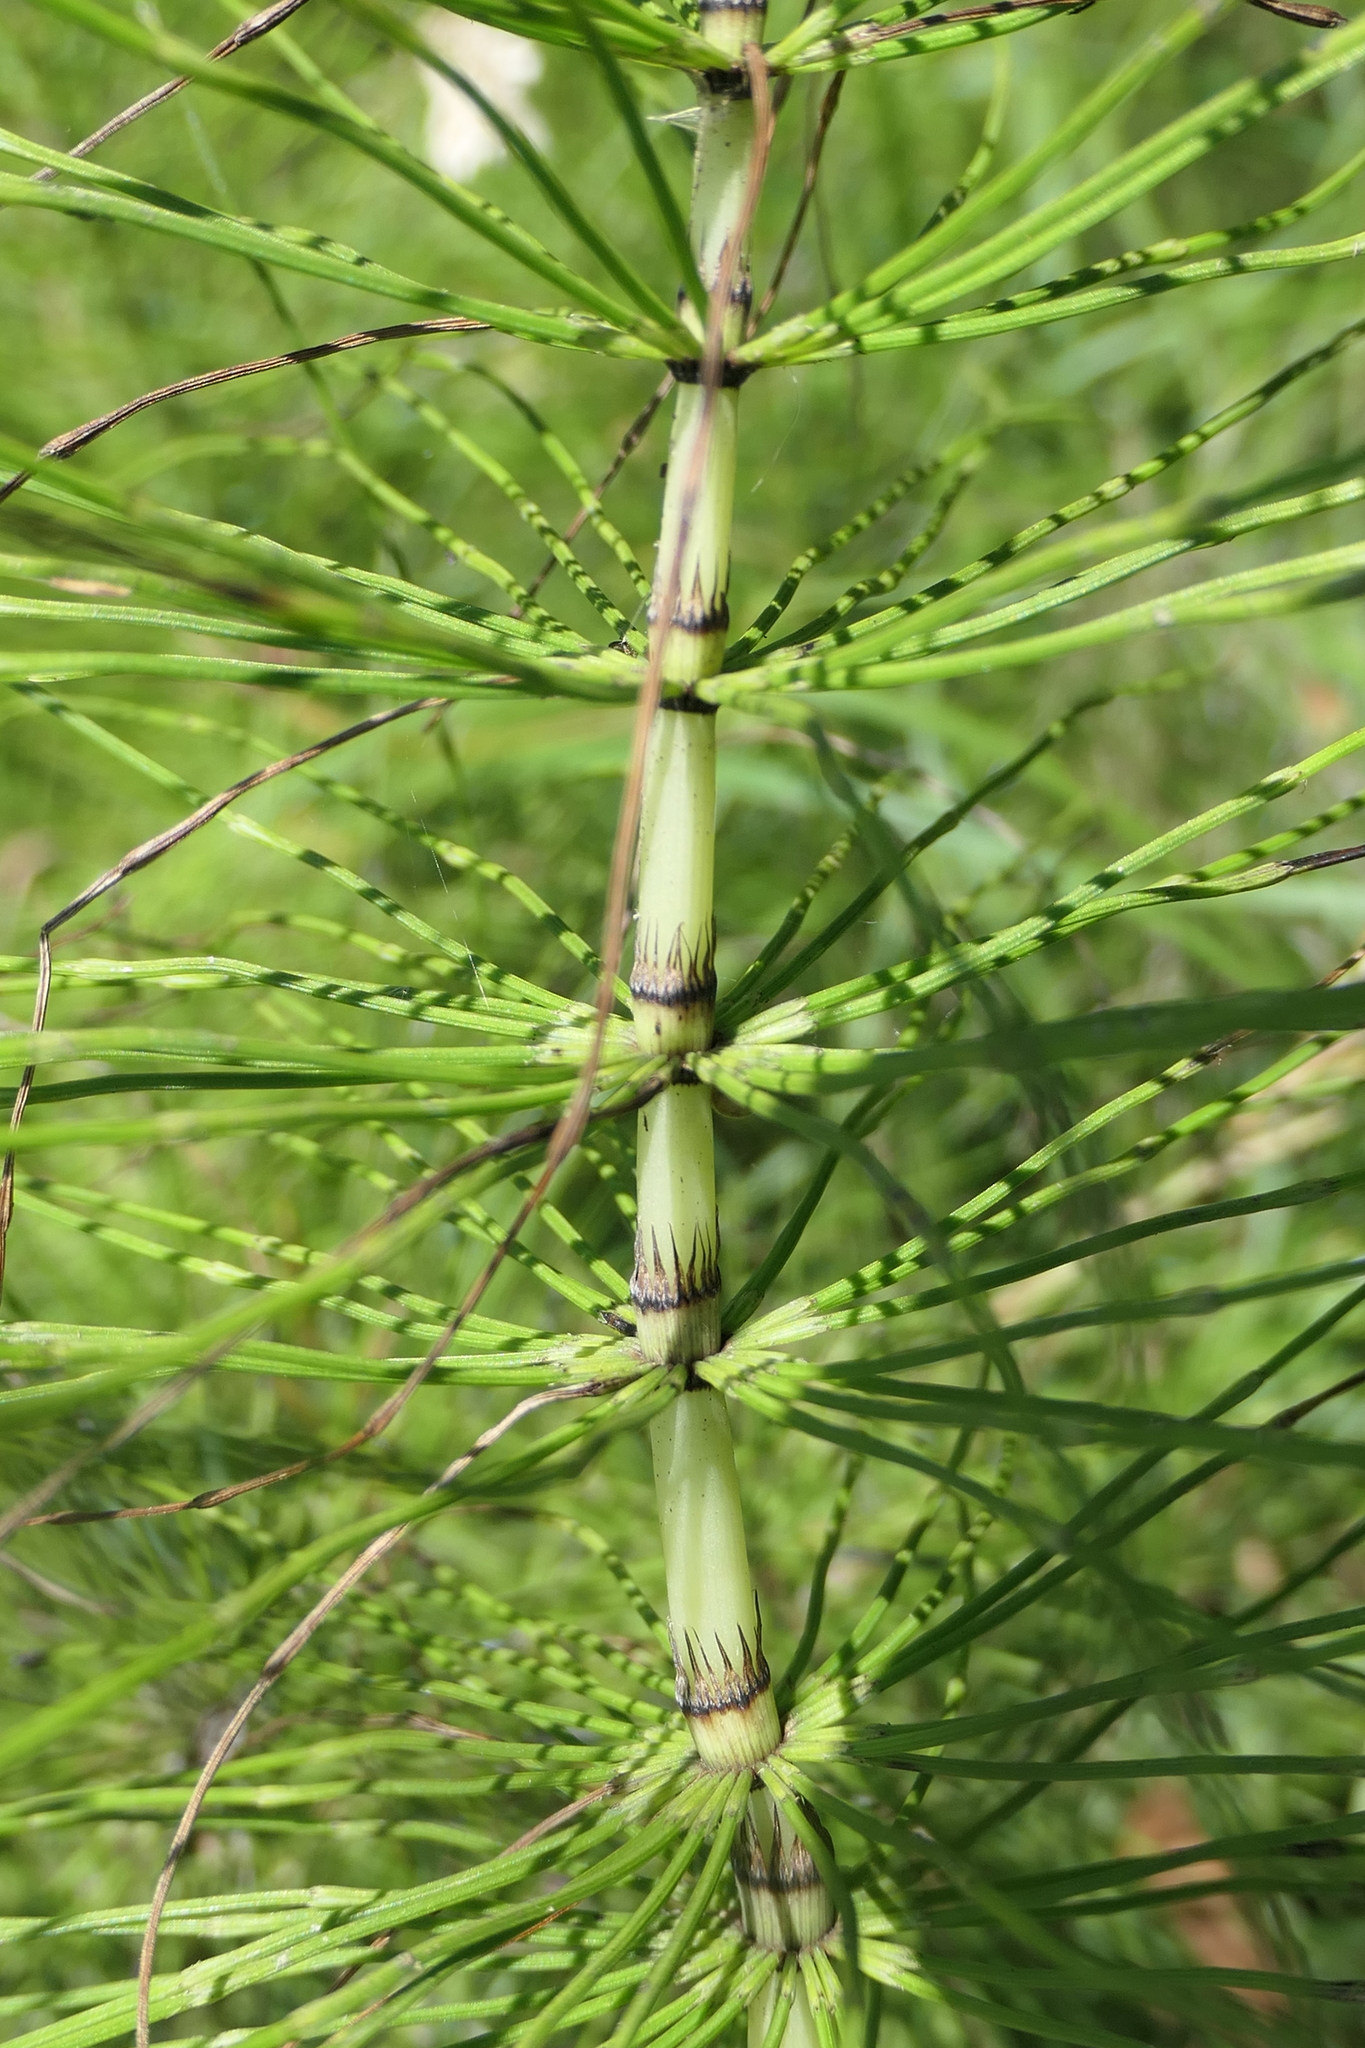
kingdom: Plantae
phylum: Tracheophyta
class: Polypodiopsida
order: Equisetales
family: Equisetaceae
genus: Equisetum
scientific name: Equisetum telmateia
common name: Great horsetail
